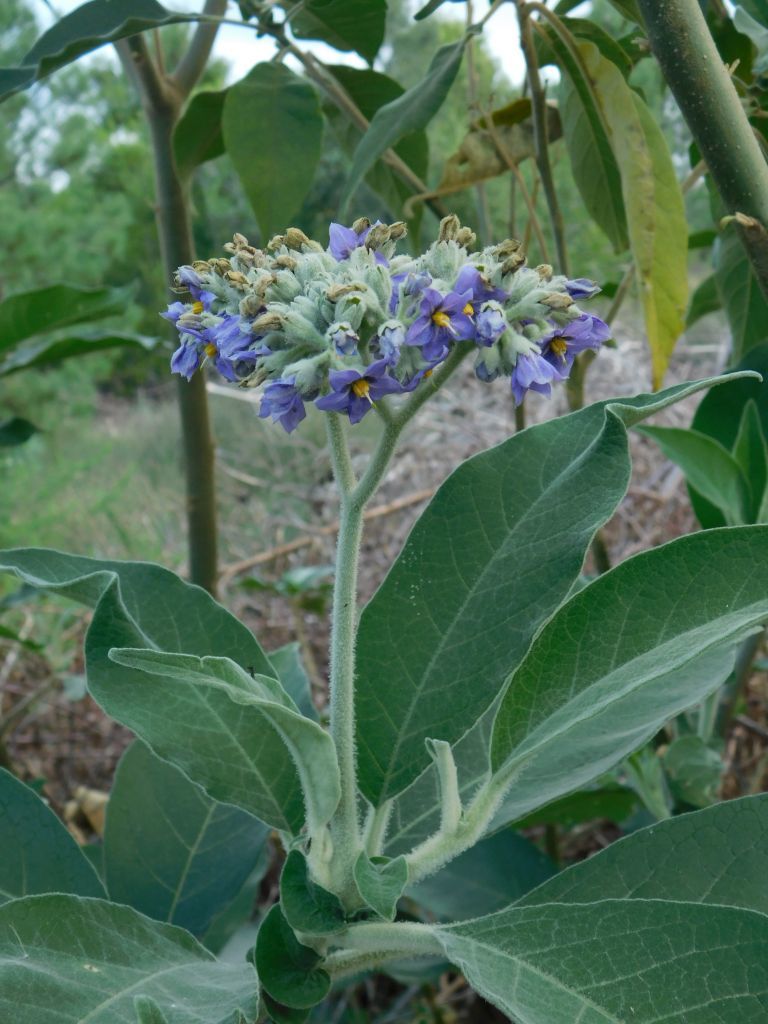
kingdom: Plantae
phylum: Tracheophyta
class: Magnoliopsida
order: Solanales
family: Solanaceae
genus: Solanum
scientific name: Solanum mauritianum
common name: Earleaf nightshade
